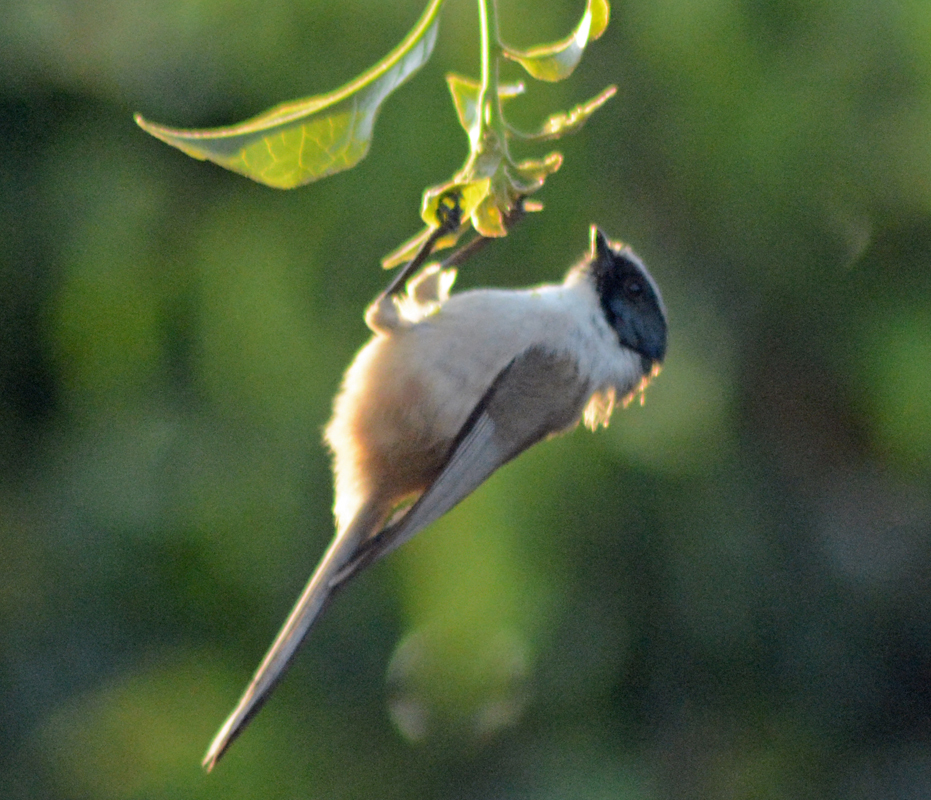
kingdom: Animalia
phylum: Chordata
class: Aves
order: Passeriformes
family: Aegithalidae
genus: Psaltriparus
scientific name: Psaltriparus minimus
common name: American bushtit
